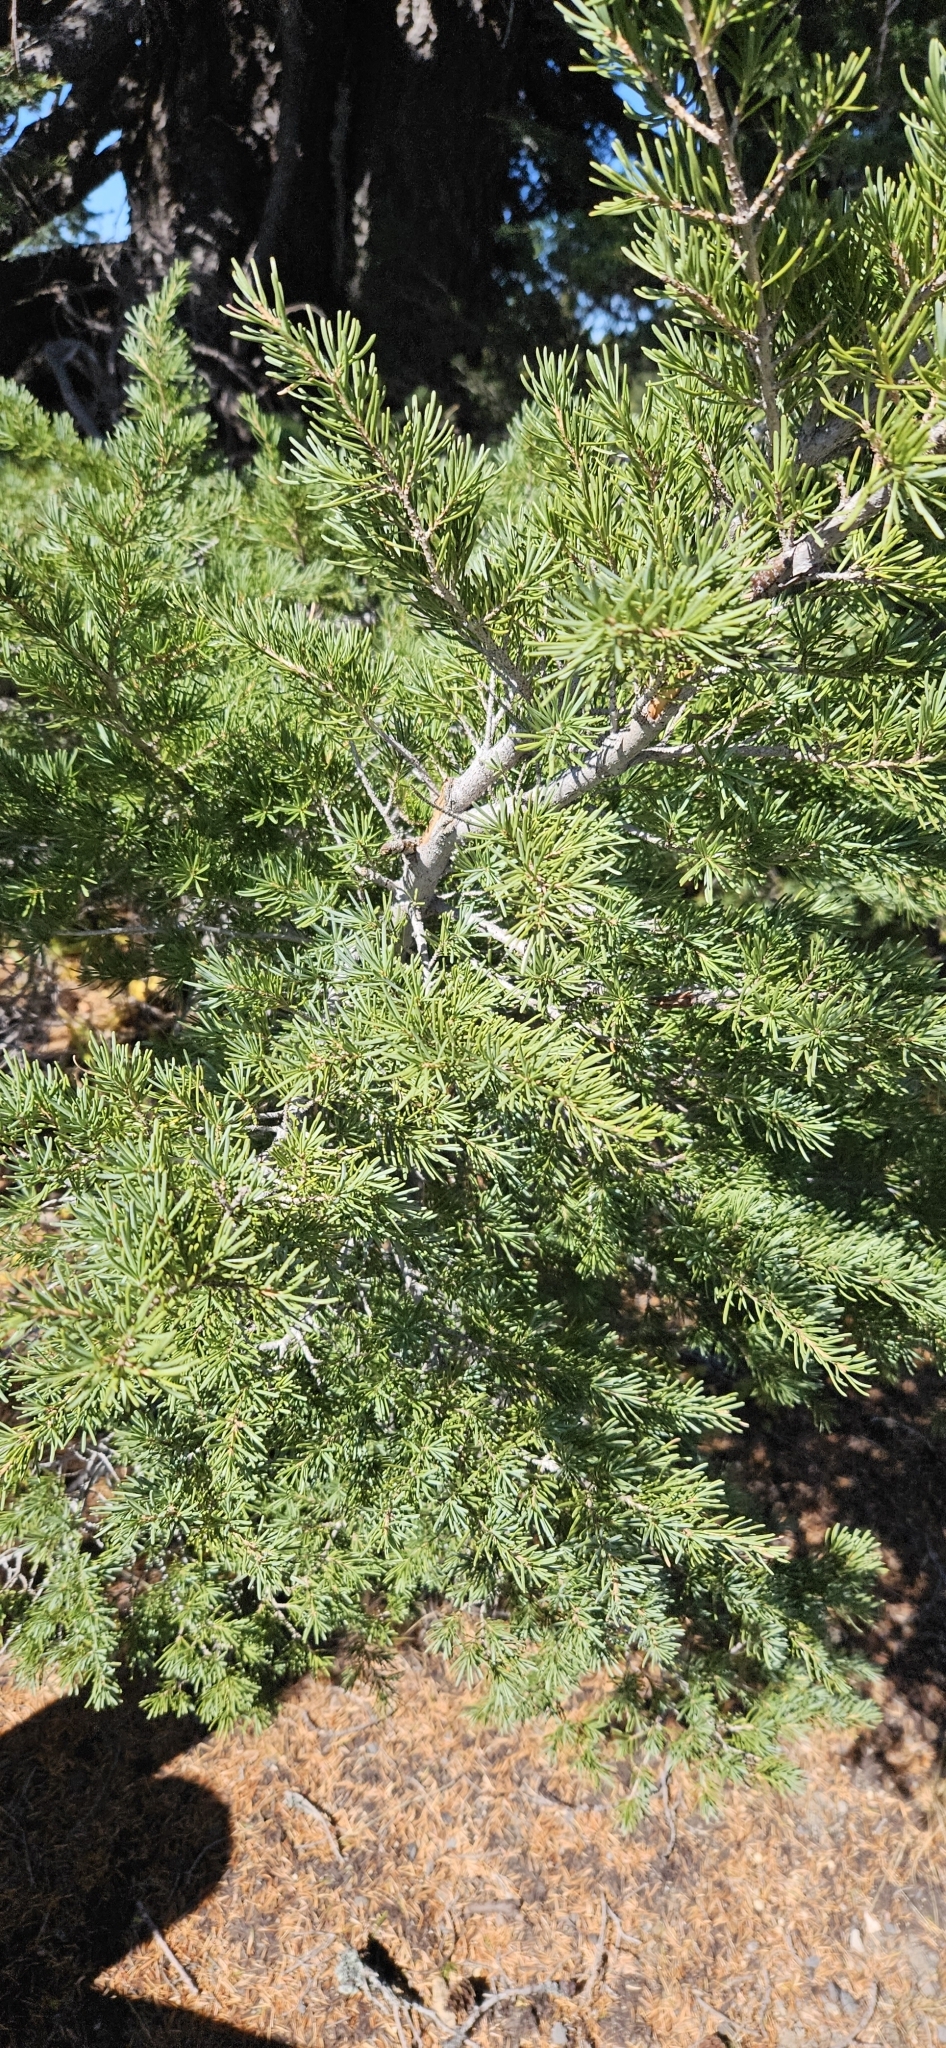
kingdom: Plantae
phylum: Tracheophyta
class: Pinopsida
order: Pinales
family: Pinaceae
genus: Tsuga
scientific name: Tsuga mertensiana
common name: Mountain hemlock
